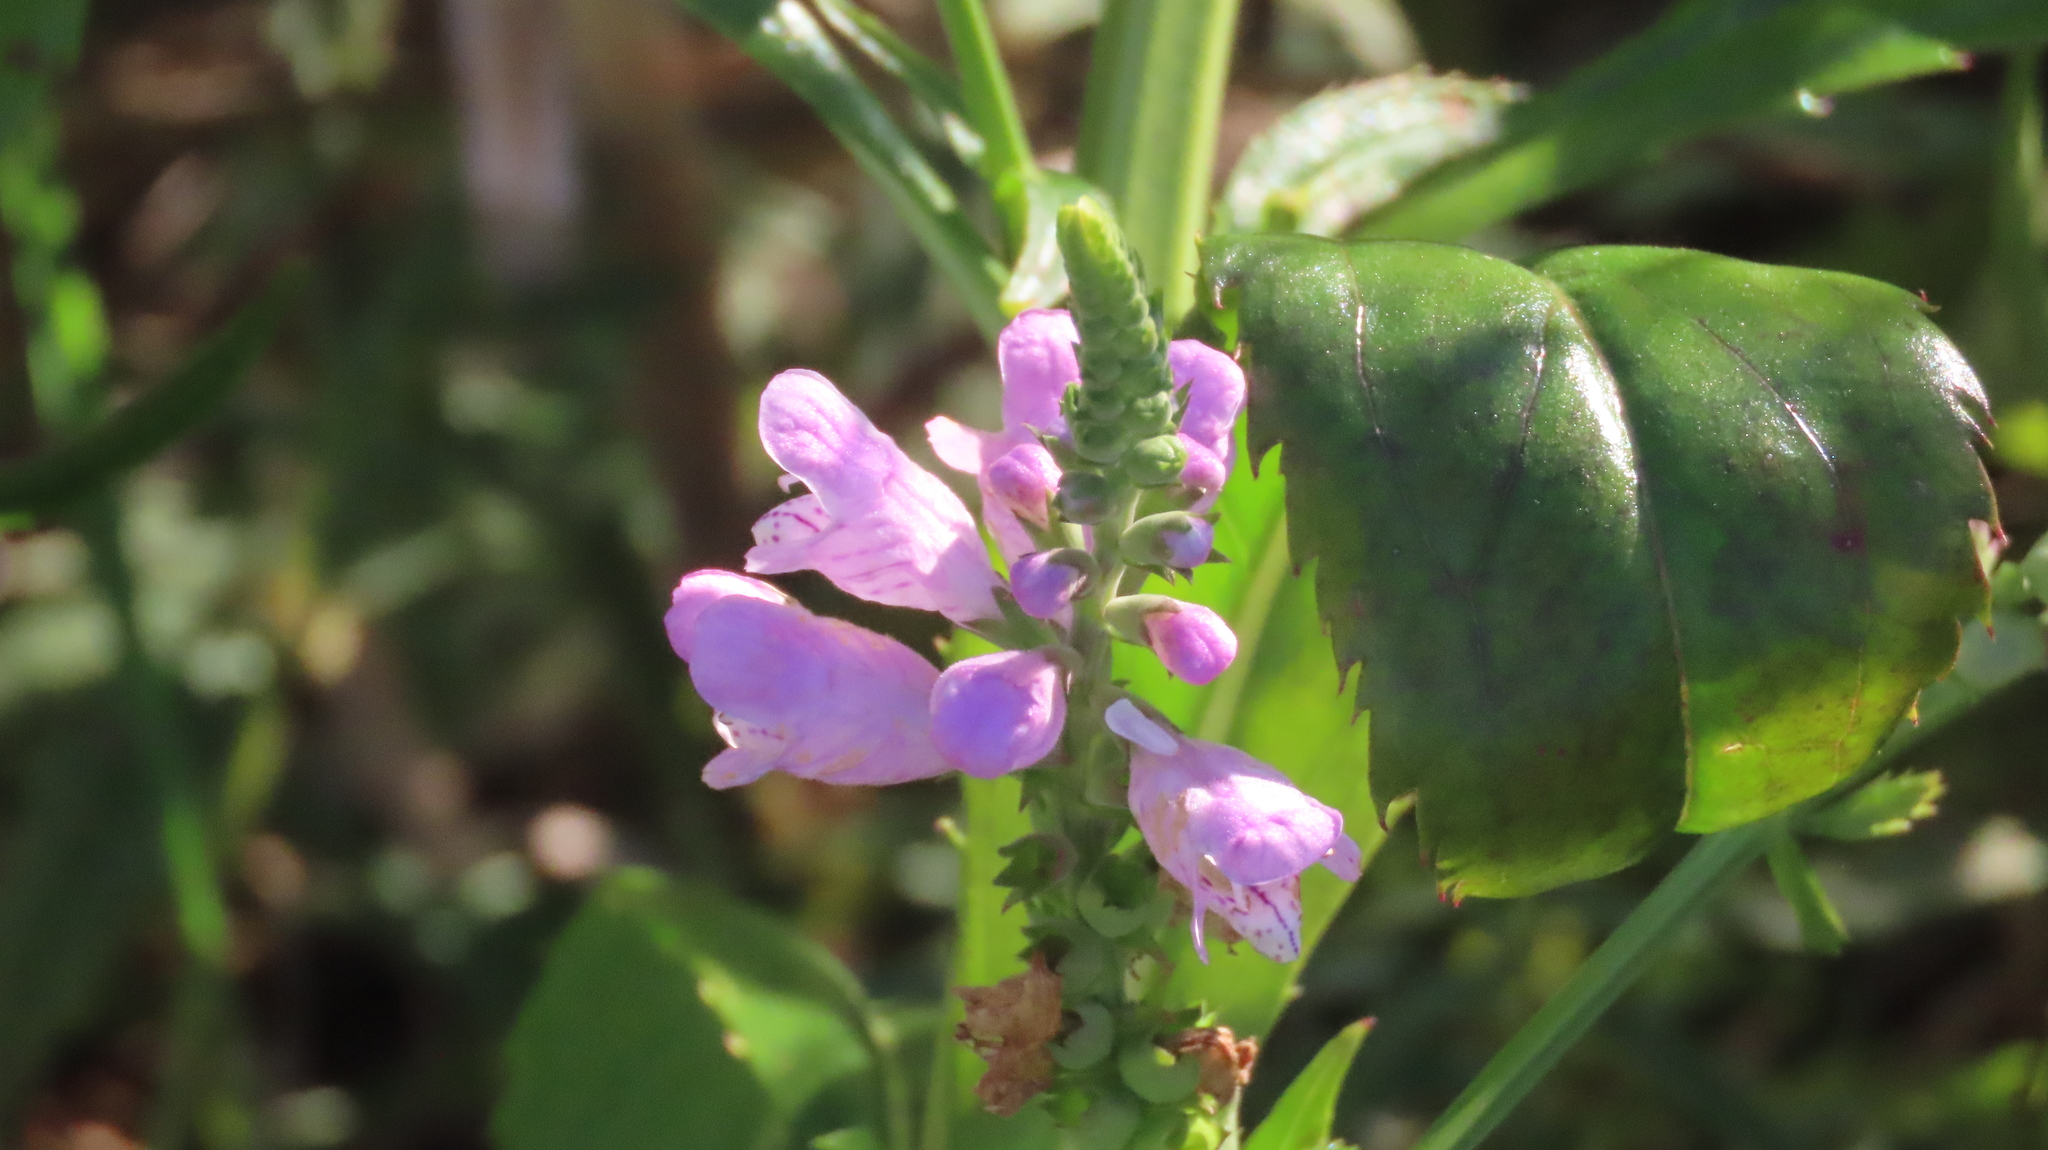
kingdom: Plantae
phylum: Tracheophyta
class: Magnoliopsida
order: Lamiales
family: Lamiaceae
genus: Physostegia
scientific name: Physostegia virginiana
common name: Obedient-plant
